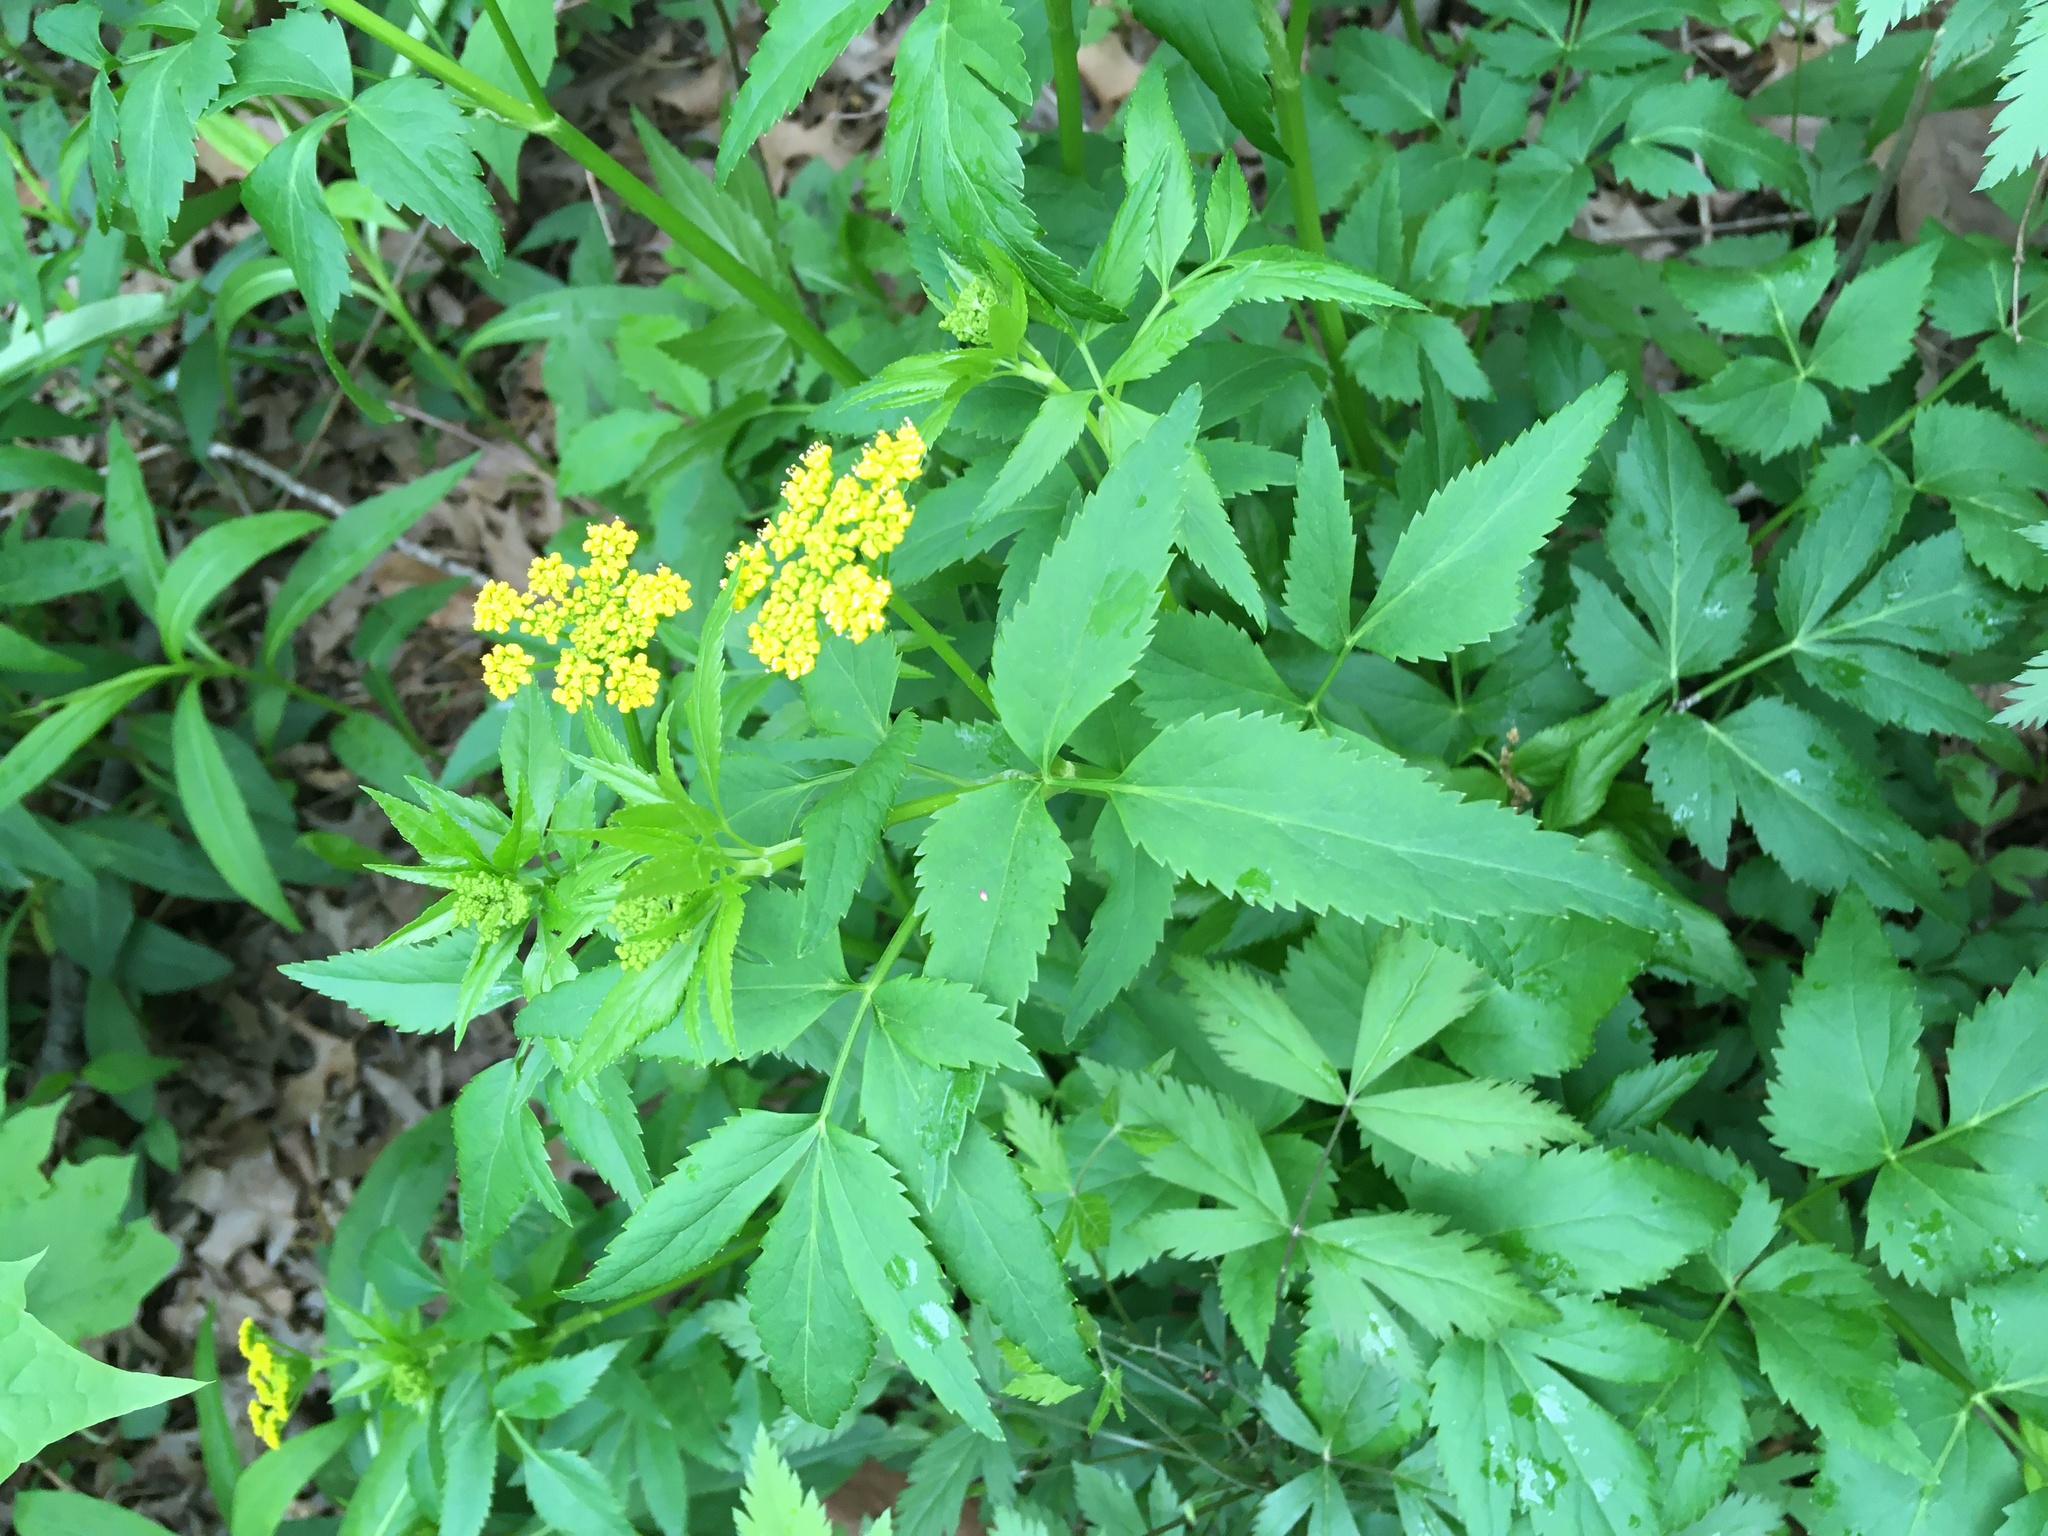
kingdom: Plantae
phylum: Tracheophyta
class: Magnoliopsida
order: Apiales
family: Apiaceae
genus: Zizia
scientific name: Zizia aurea
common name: Golden alexanders
